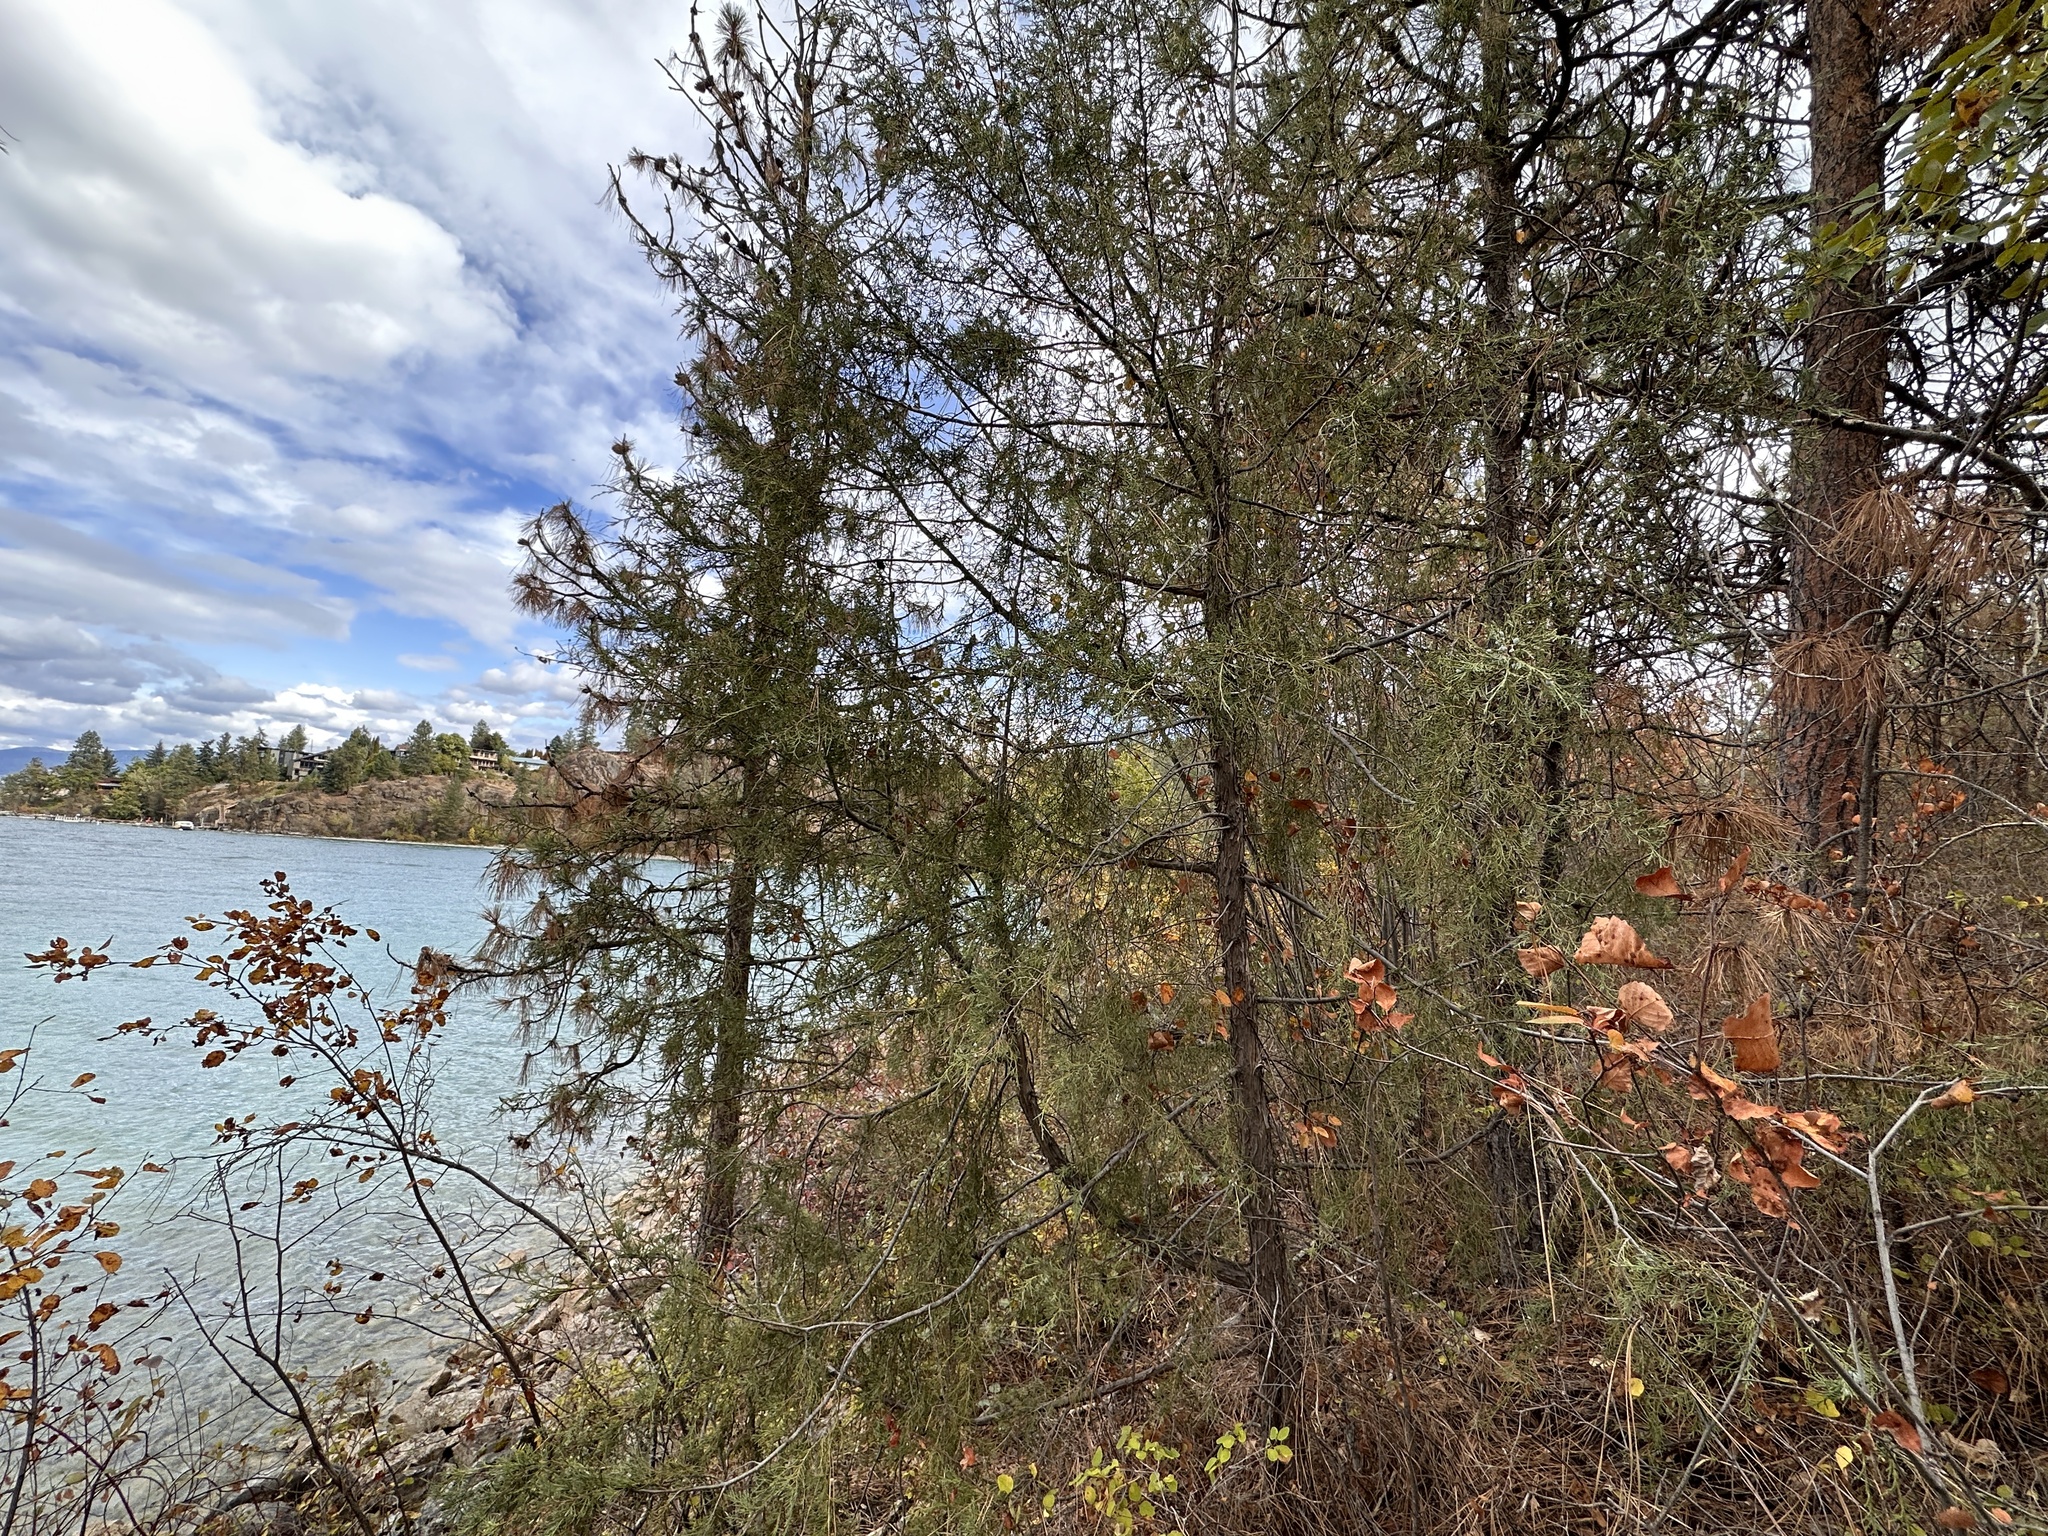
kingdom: Plantae
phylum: Tracheophyta
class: Pinopsida
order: Pinales
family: Cupressaceae
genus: Juniperus
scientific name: Juniperus scopulorum
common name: Rocky mountain juniper
